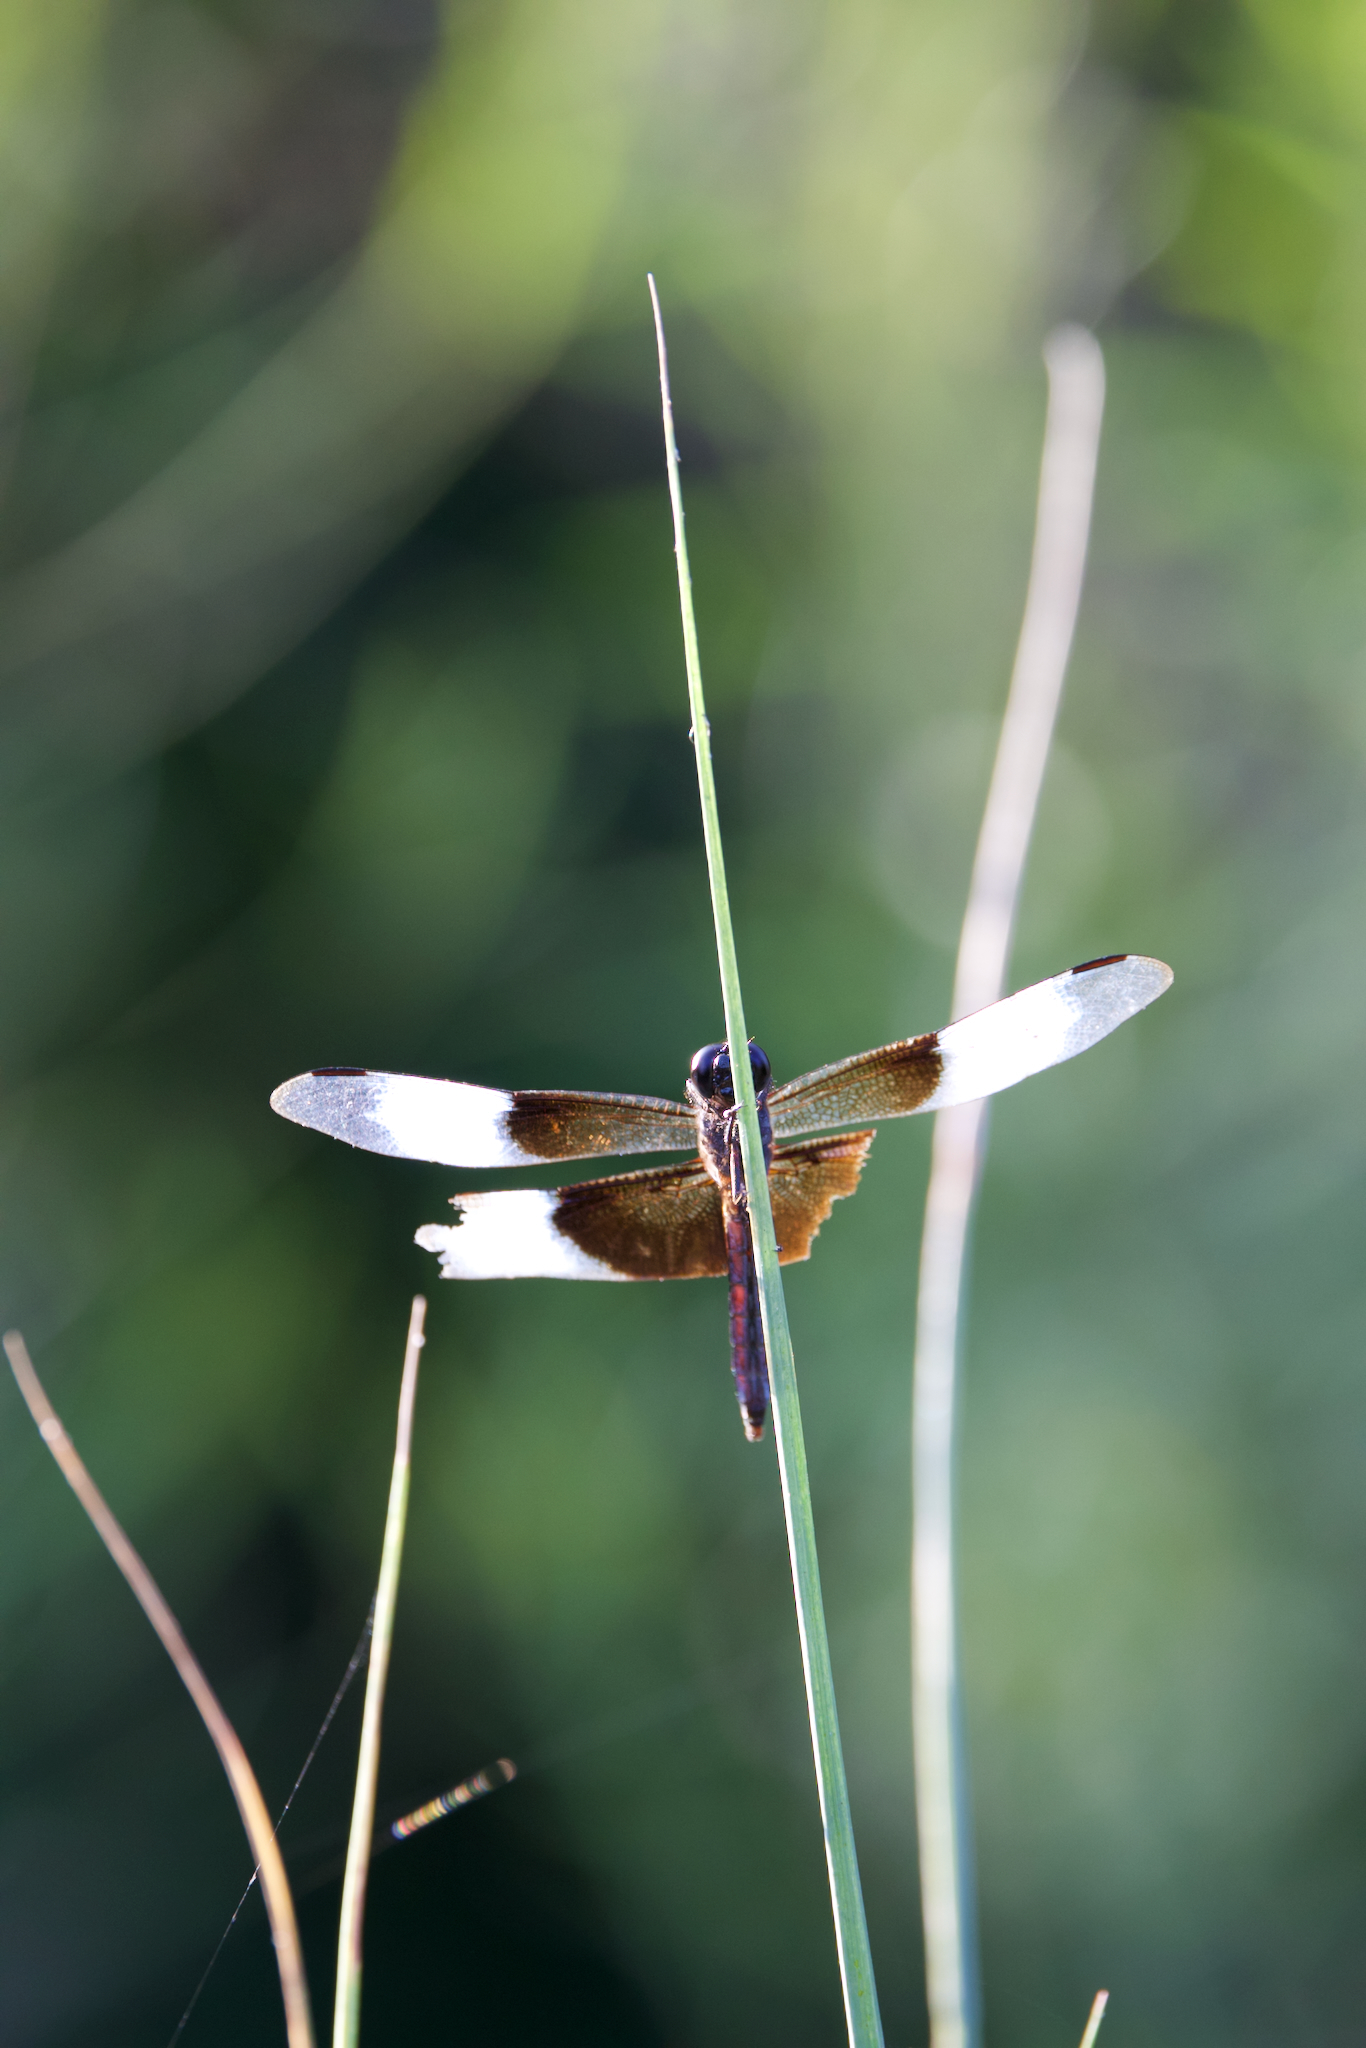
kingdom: Animalia
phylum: Arthropoda
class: Insecta
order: Odonata
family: Libellulidae
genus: Libellula
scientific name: Libellula luctuosa
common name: Widow skimmer
